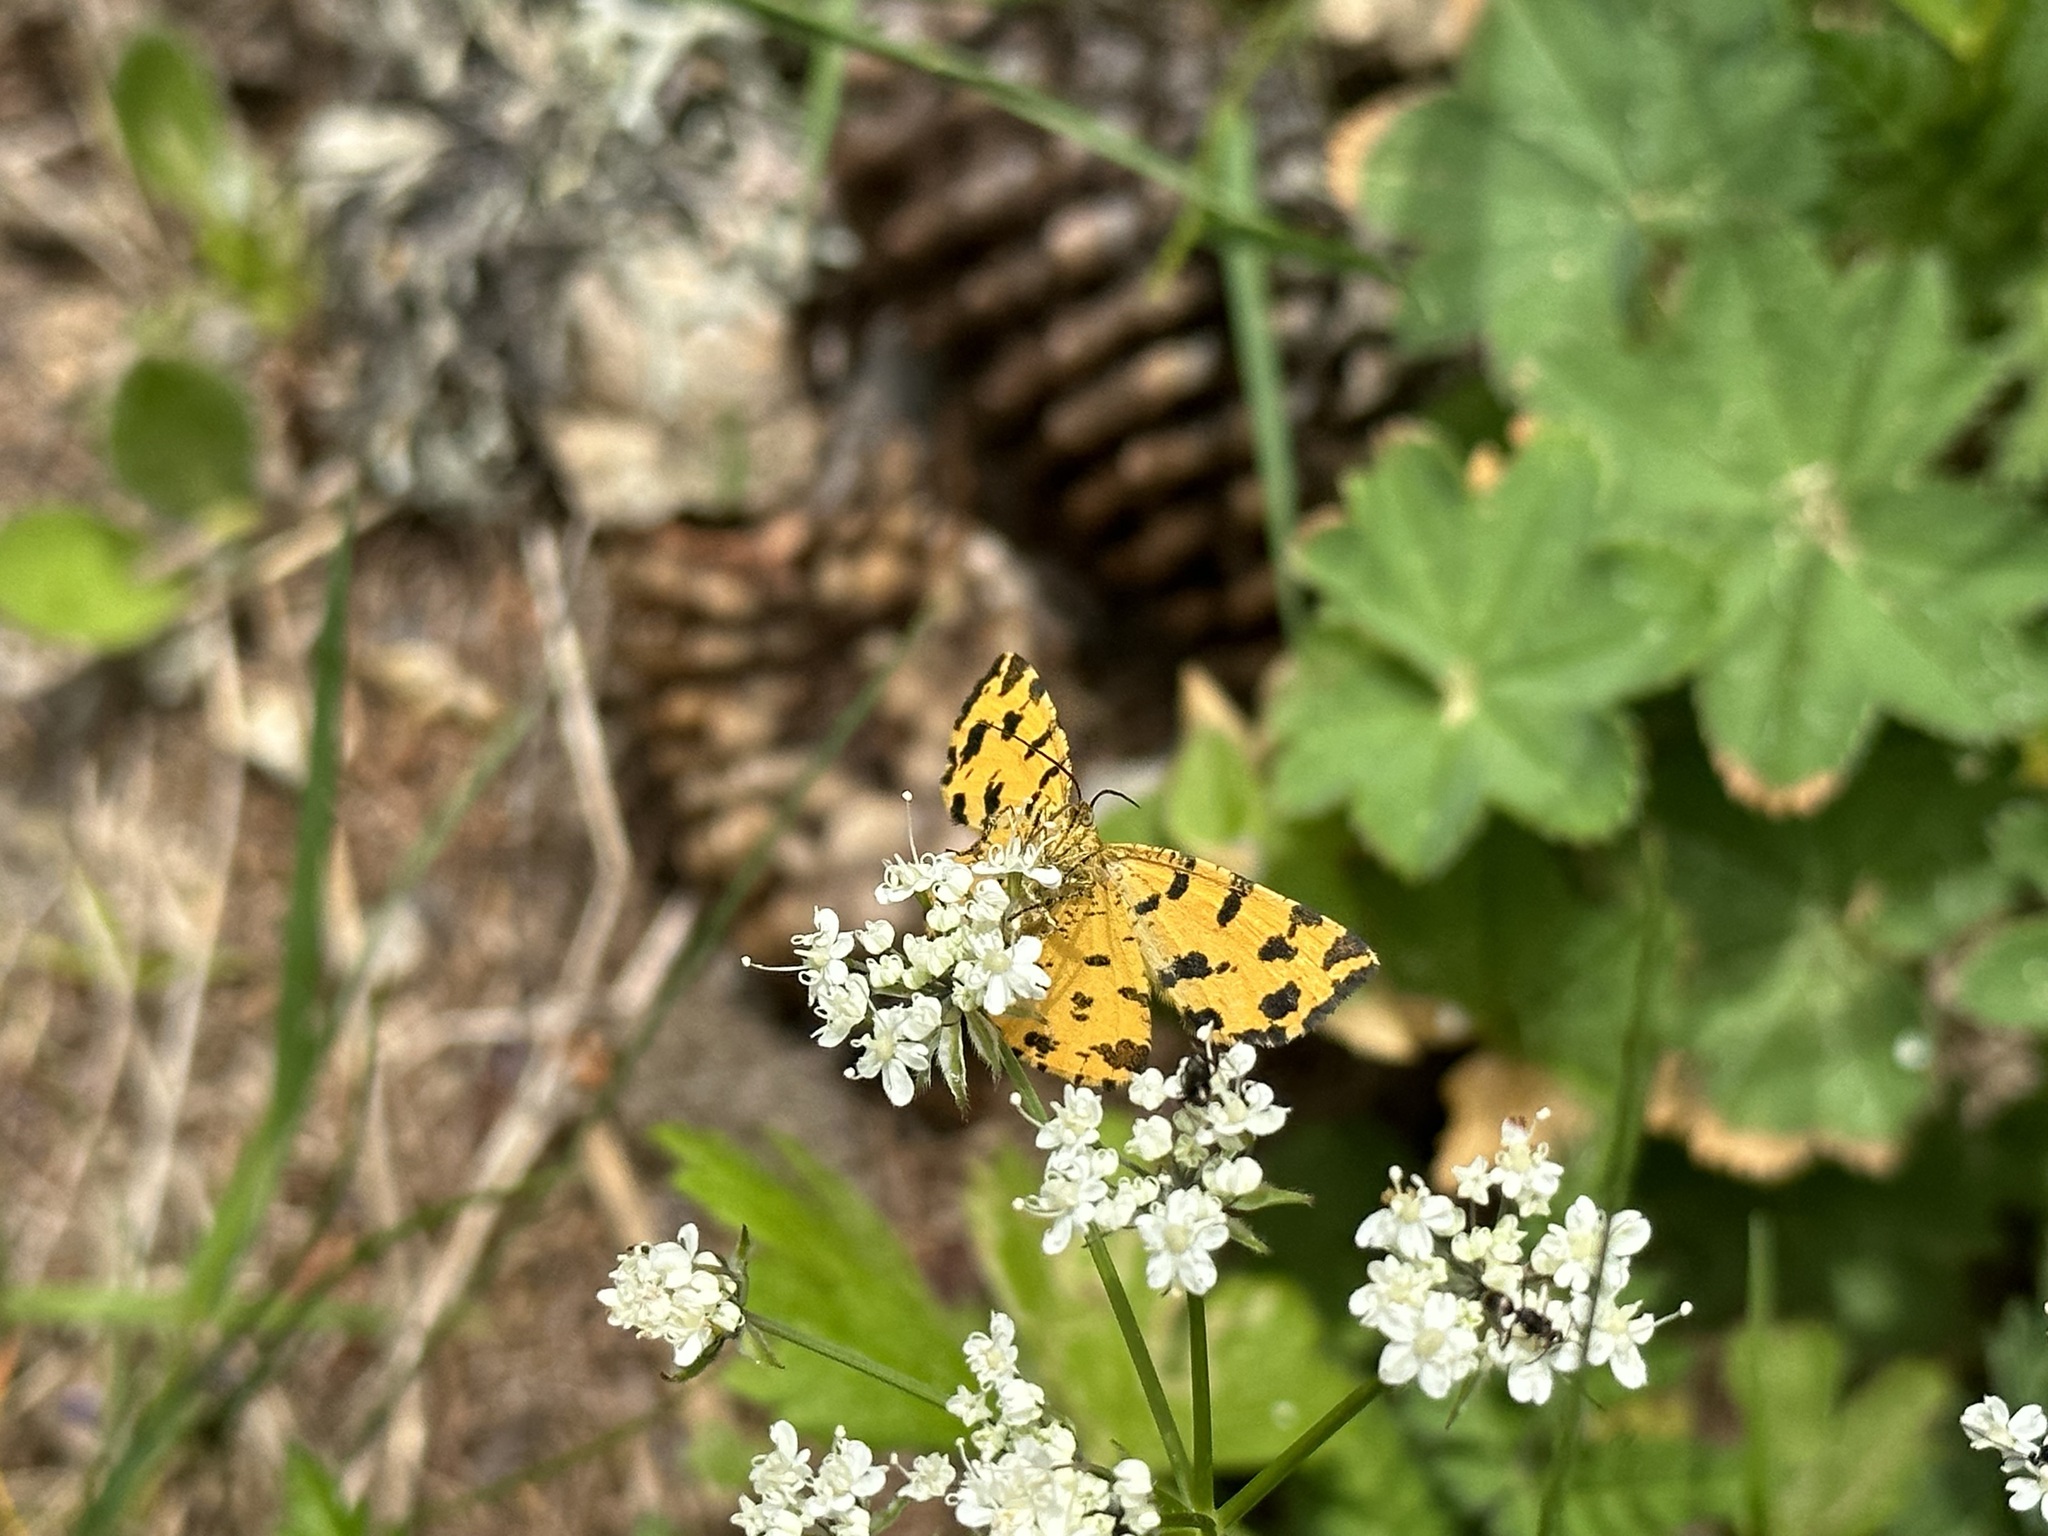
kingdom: Animalia
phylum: Arthropoda
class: Insecta
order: Lepidoptera
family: Geometridae
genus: Pseudopanthera
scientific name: Pseudopanthera macularia
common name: Speckled yellow
